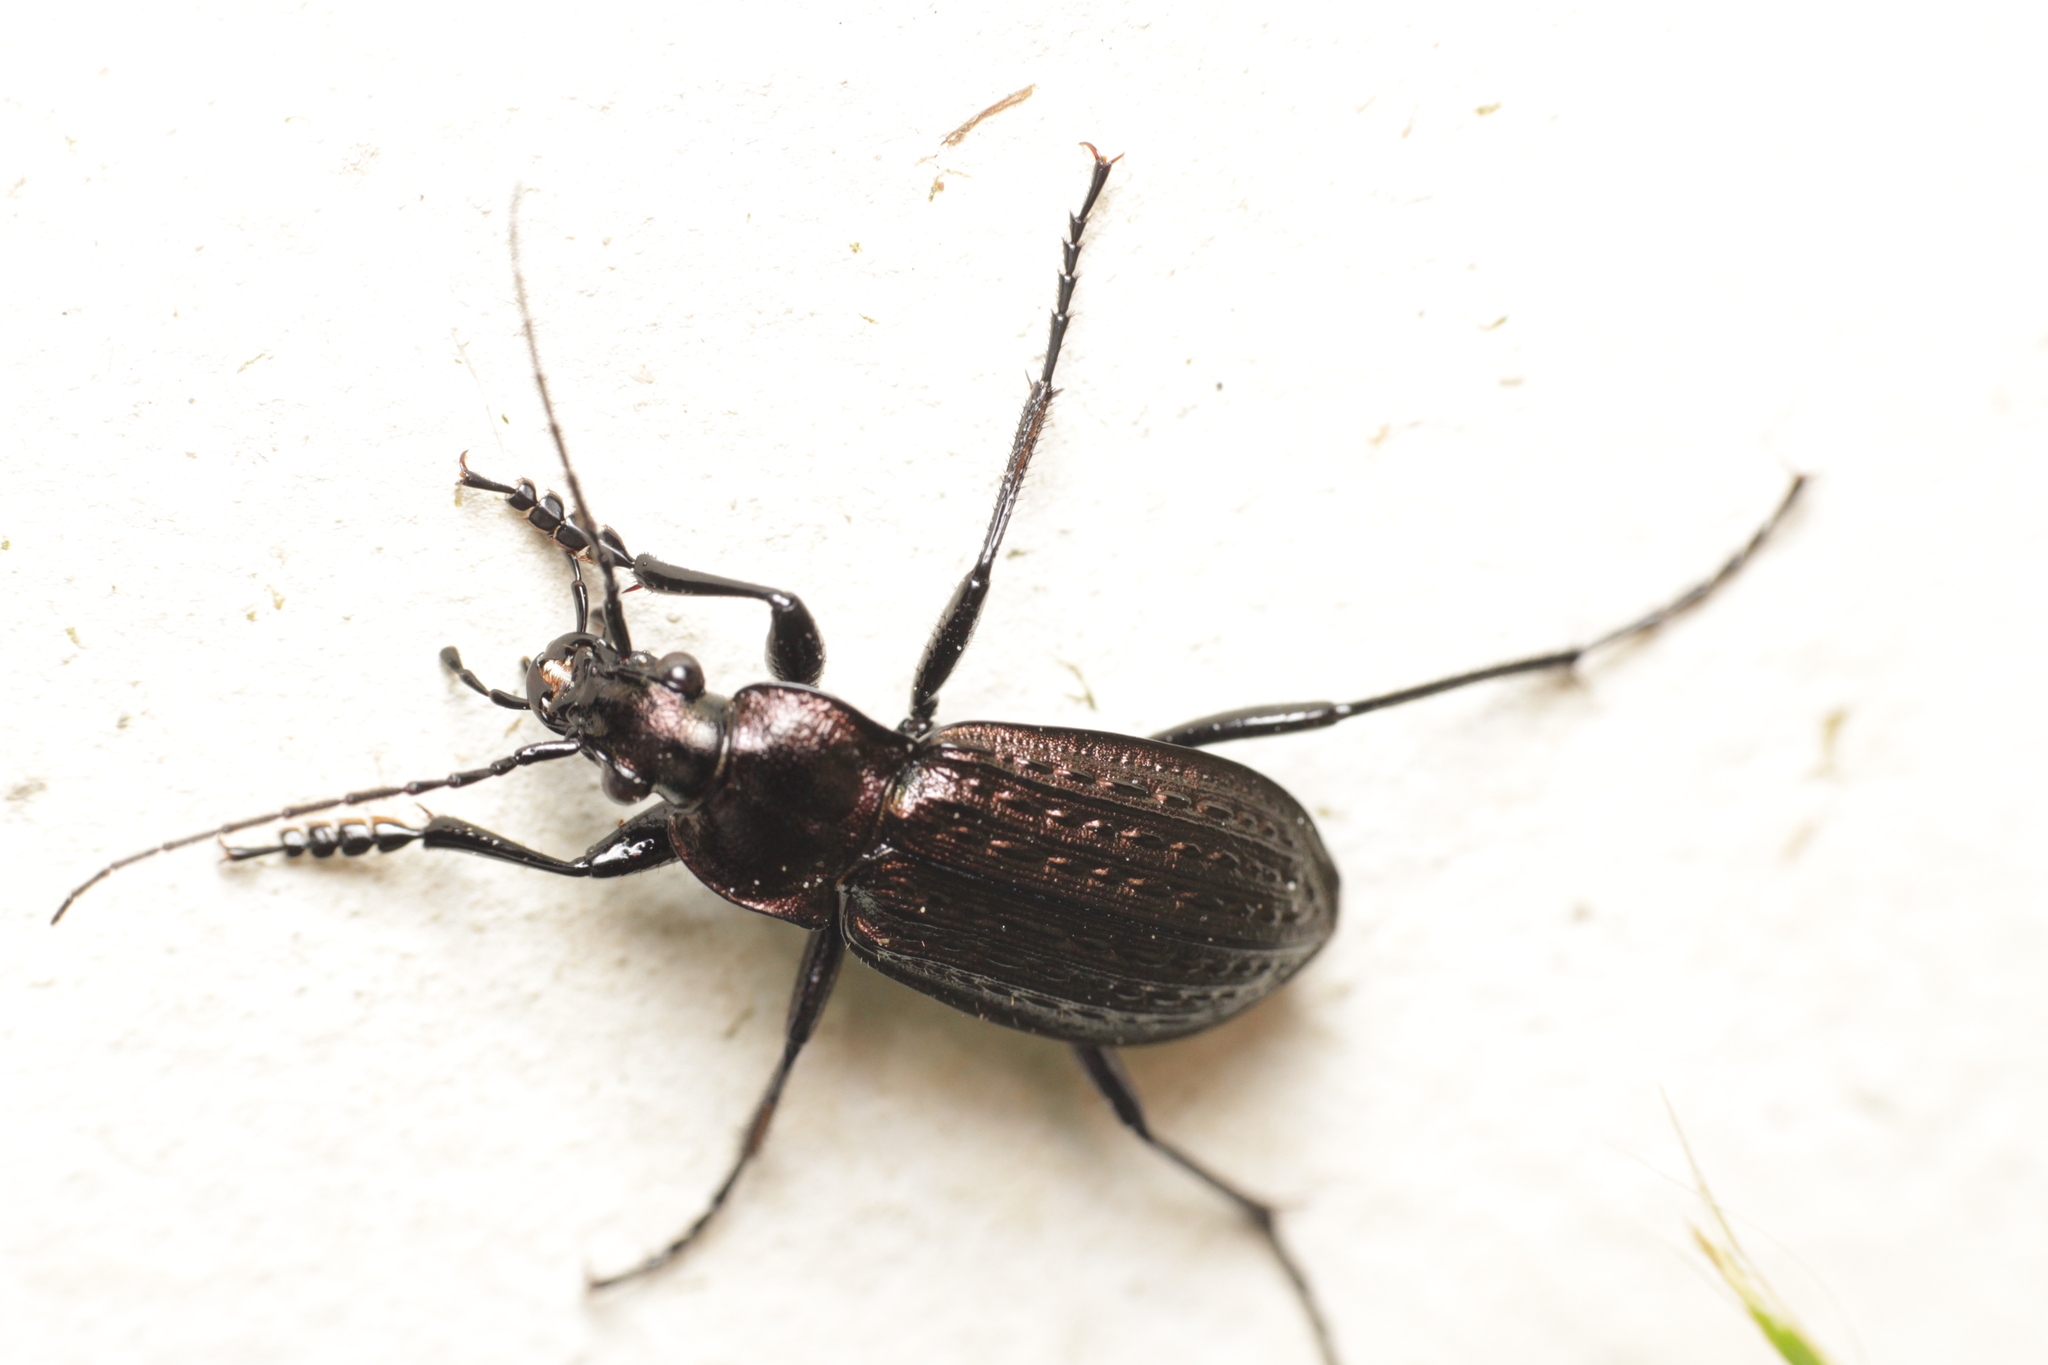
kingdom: Animalia
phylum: Arthropoda
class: Insecta
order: Coleoptera
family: Carabidae
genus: Carabus
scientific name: Carabus granulatus
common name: Granulate ground beetle
